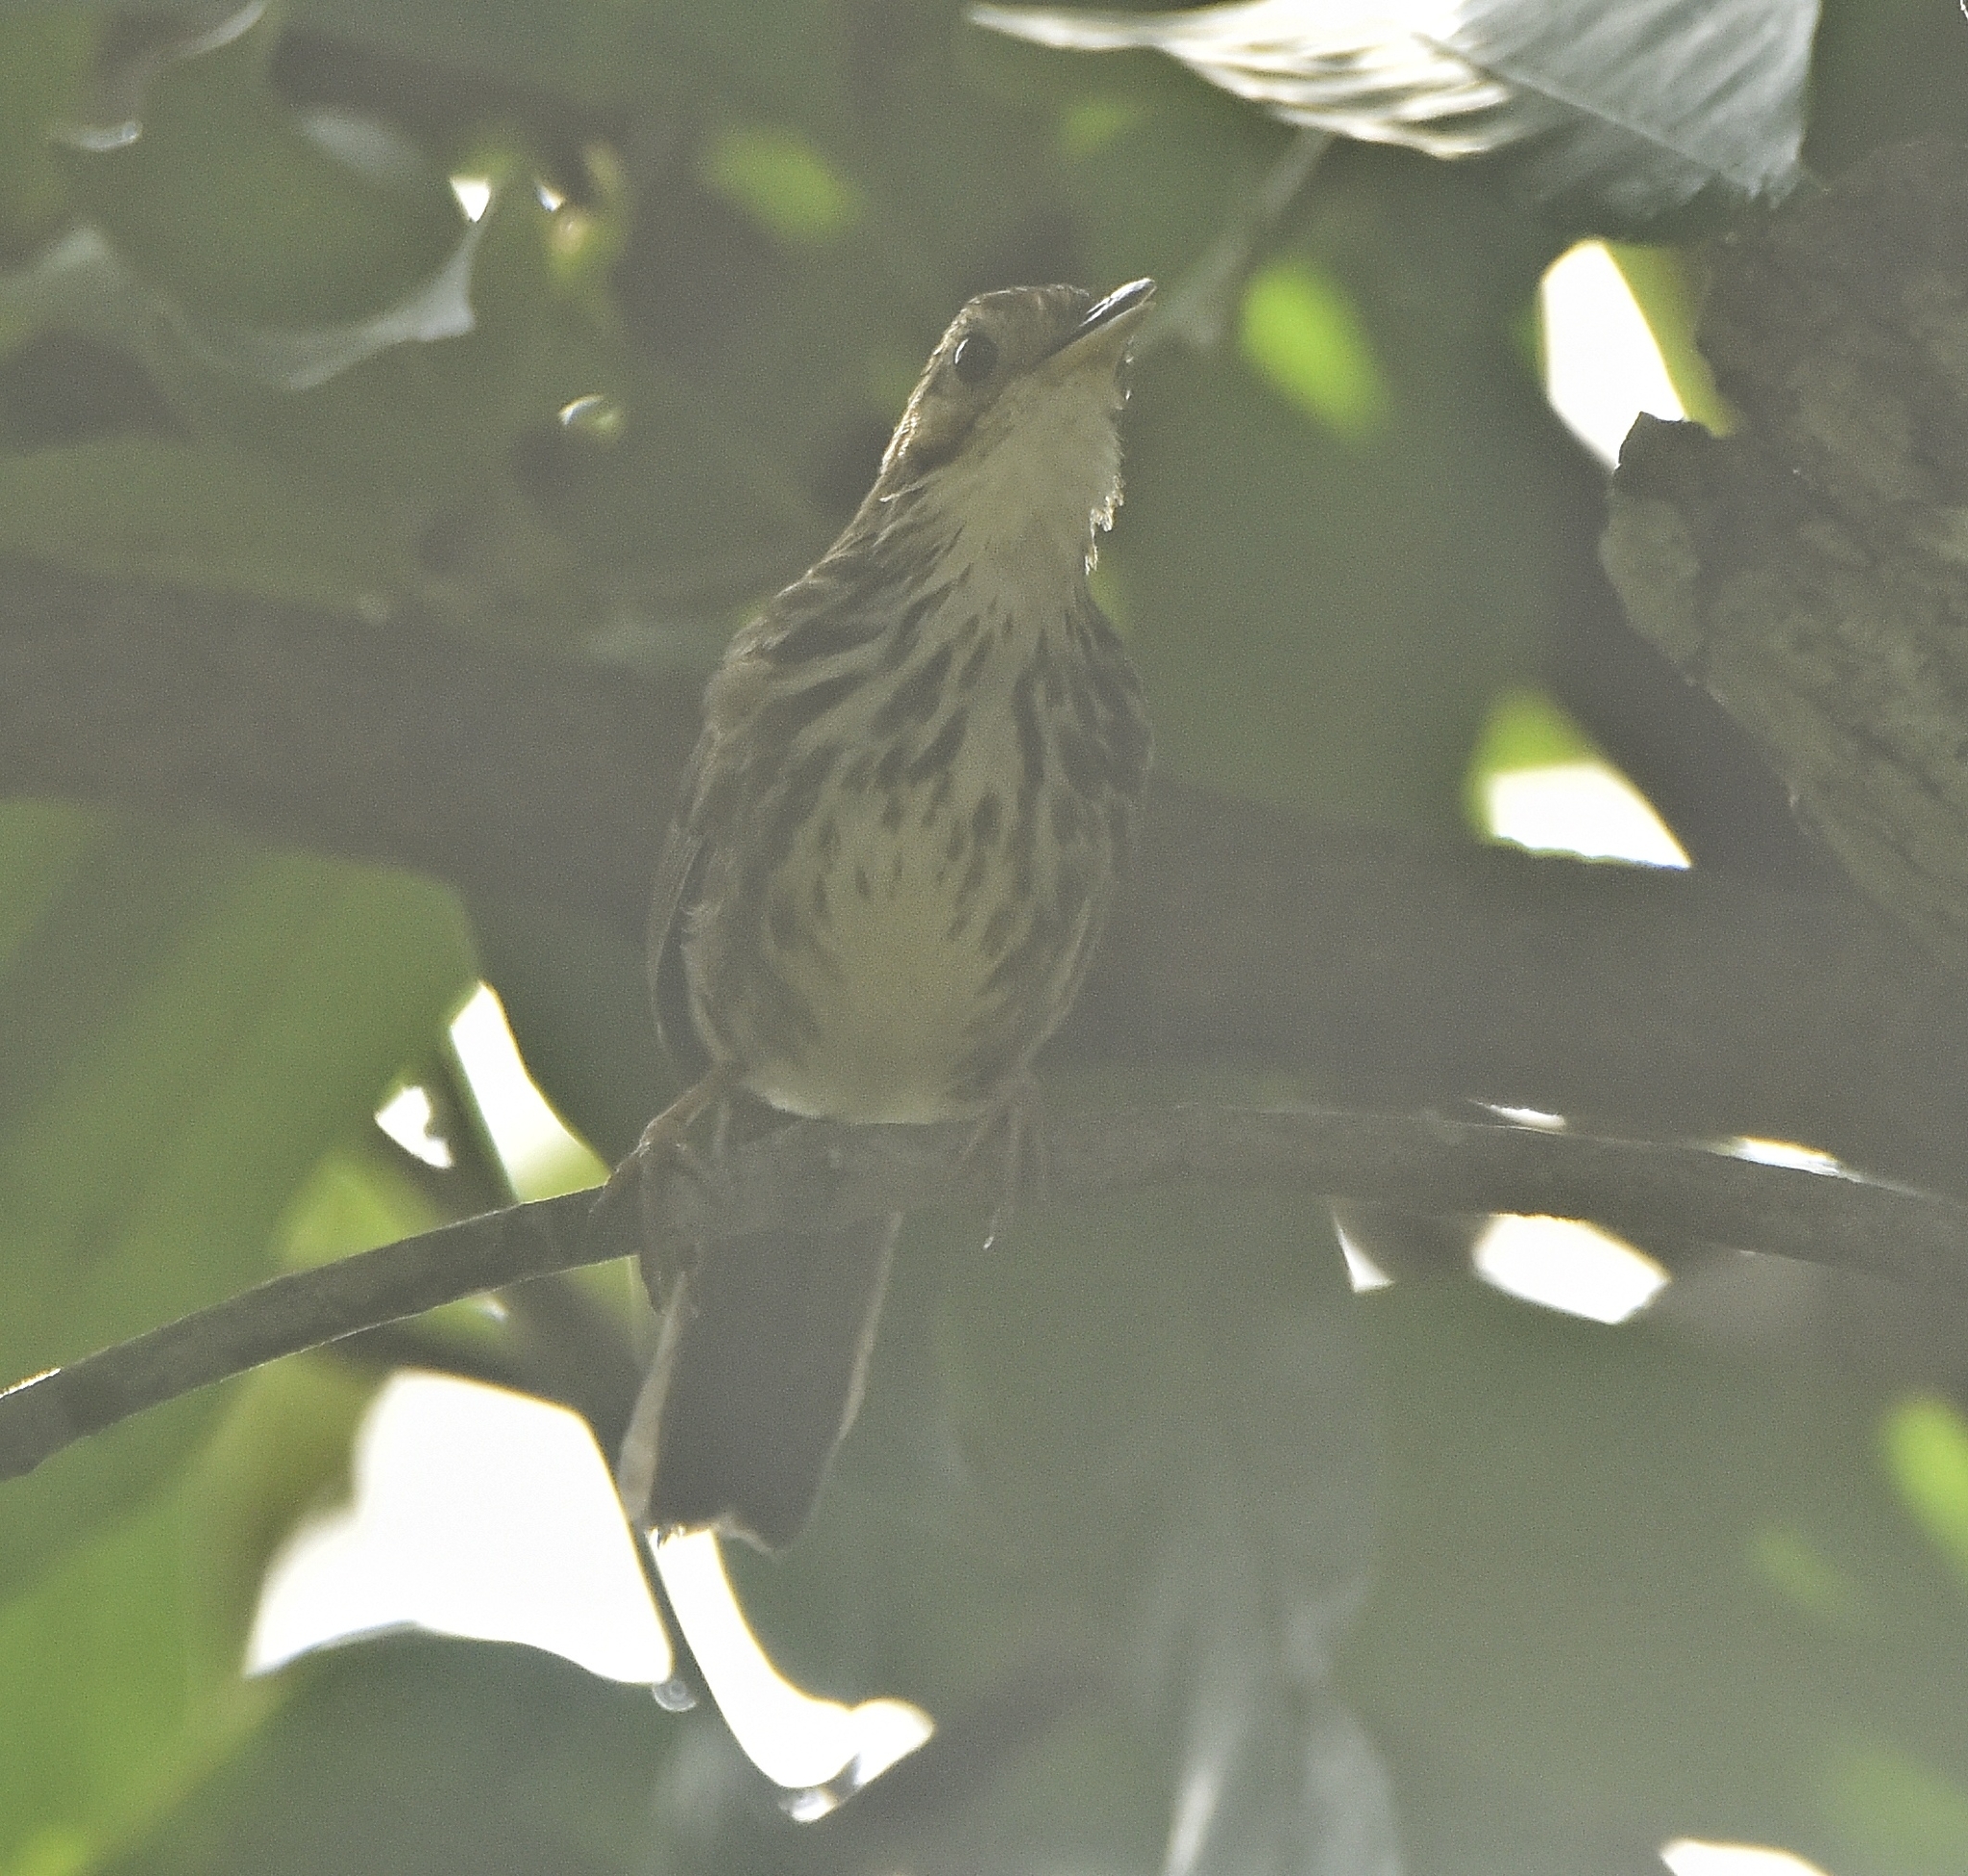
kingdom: Animalia
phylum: Chordata
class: Aves
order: Passeriformes
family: Pellorneidae
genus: Pellorneum
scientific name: Pellorneum ruficeps
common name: Puff-throated babbler
